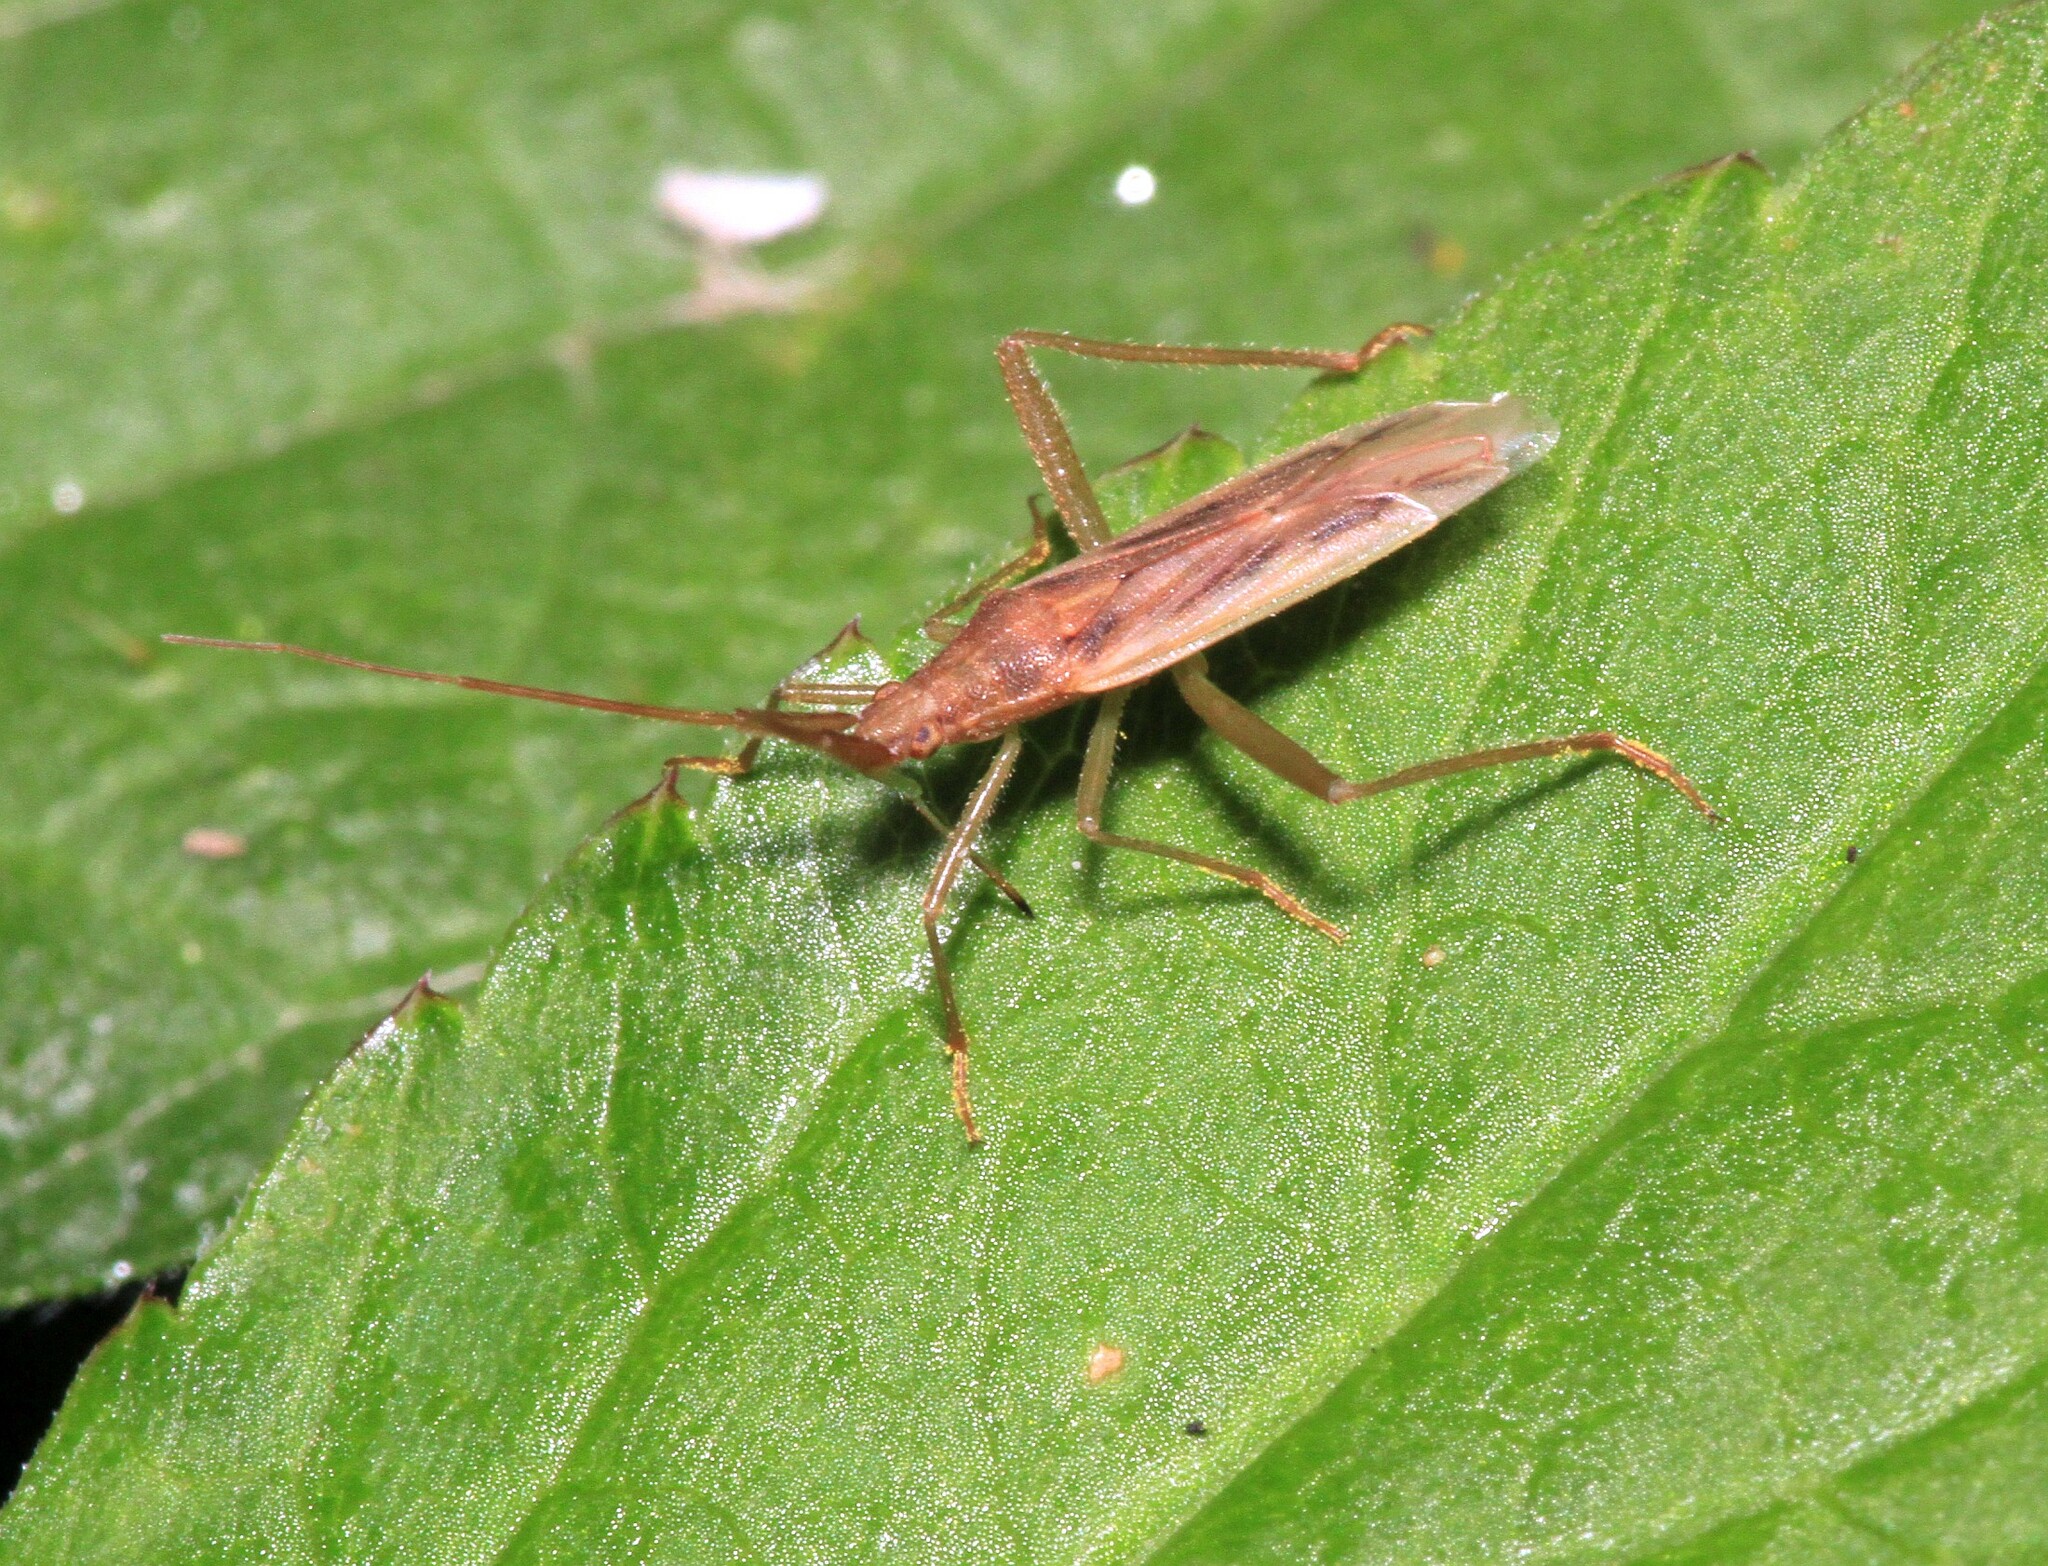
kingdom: Animalia
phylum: Arthropoda
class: Insecta
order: Hemiptera
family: Miridae
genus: Stenodema
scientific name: Stenodema laevigata
